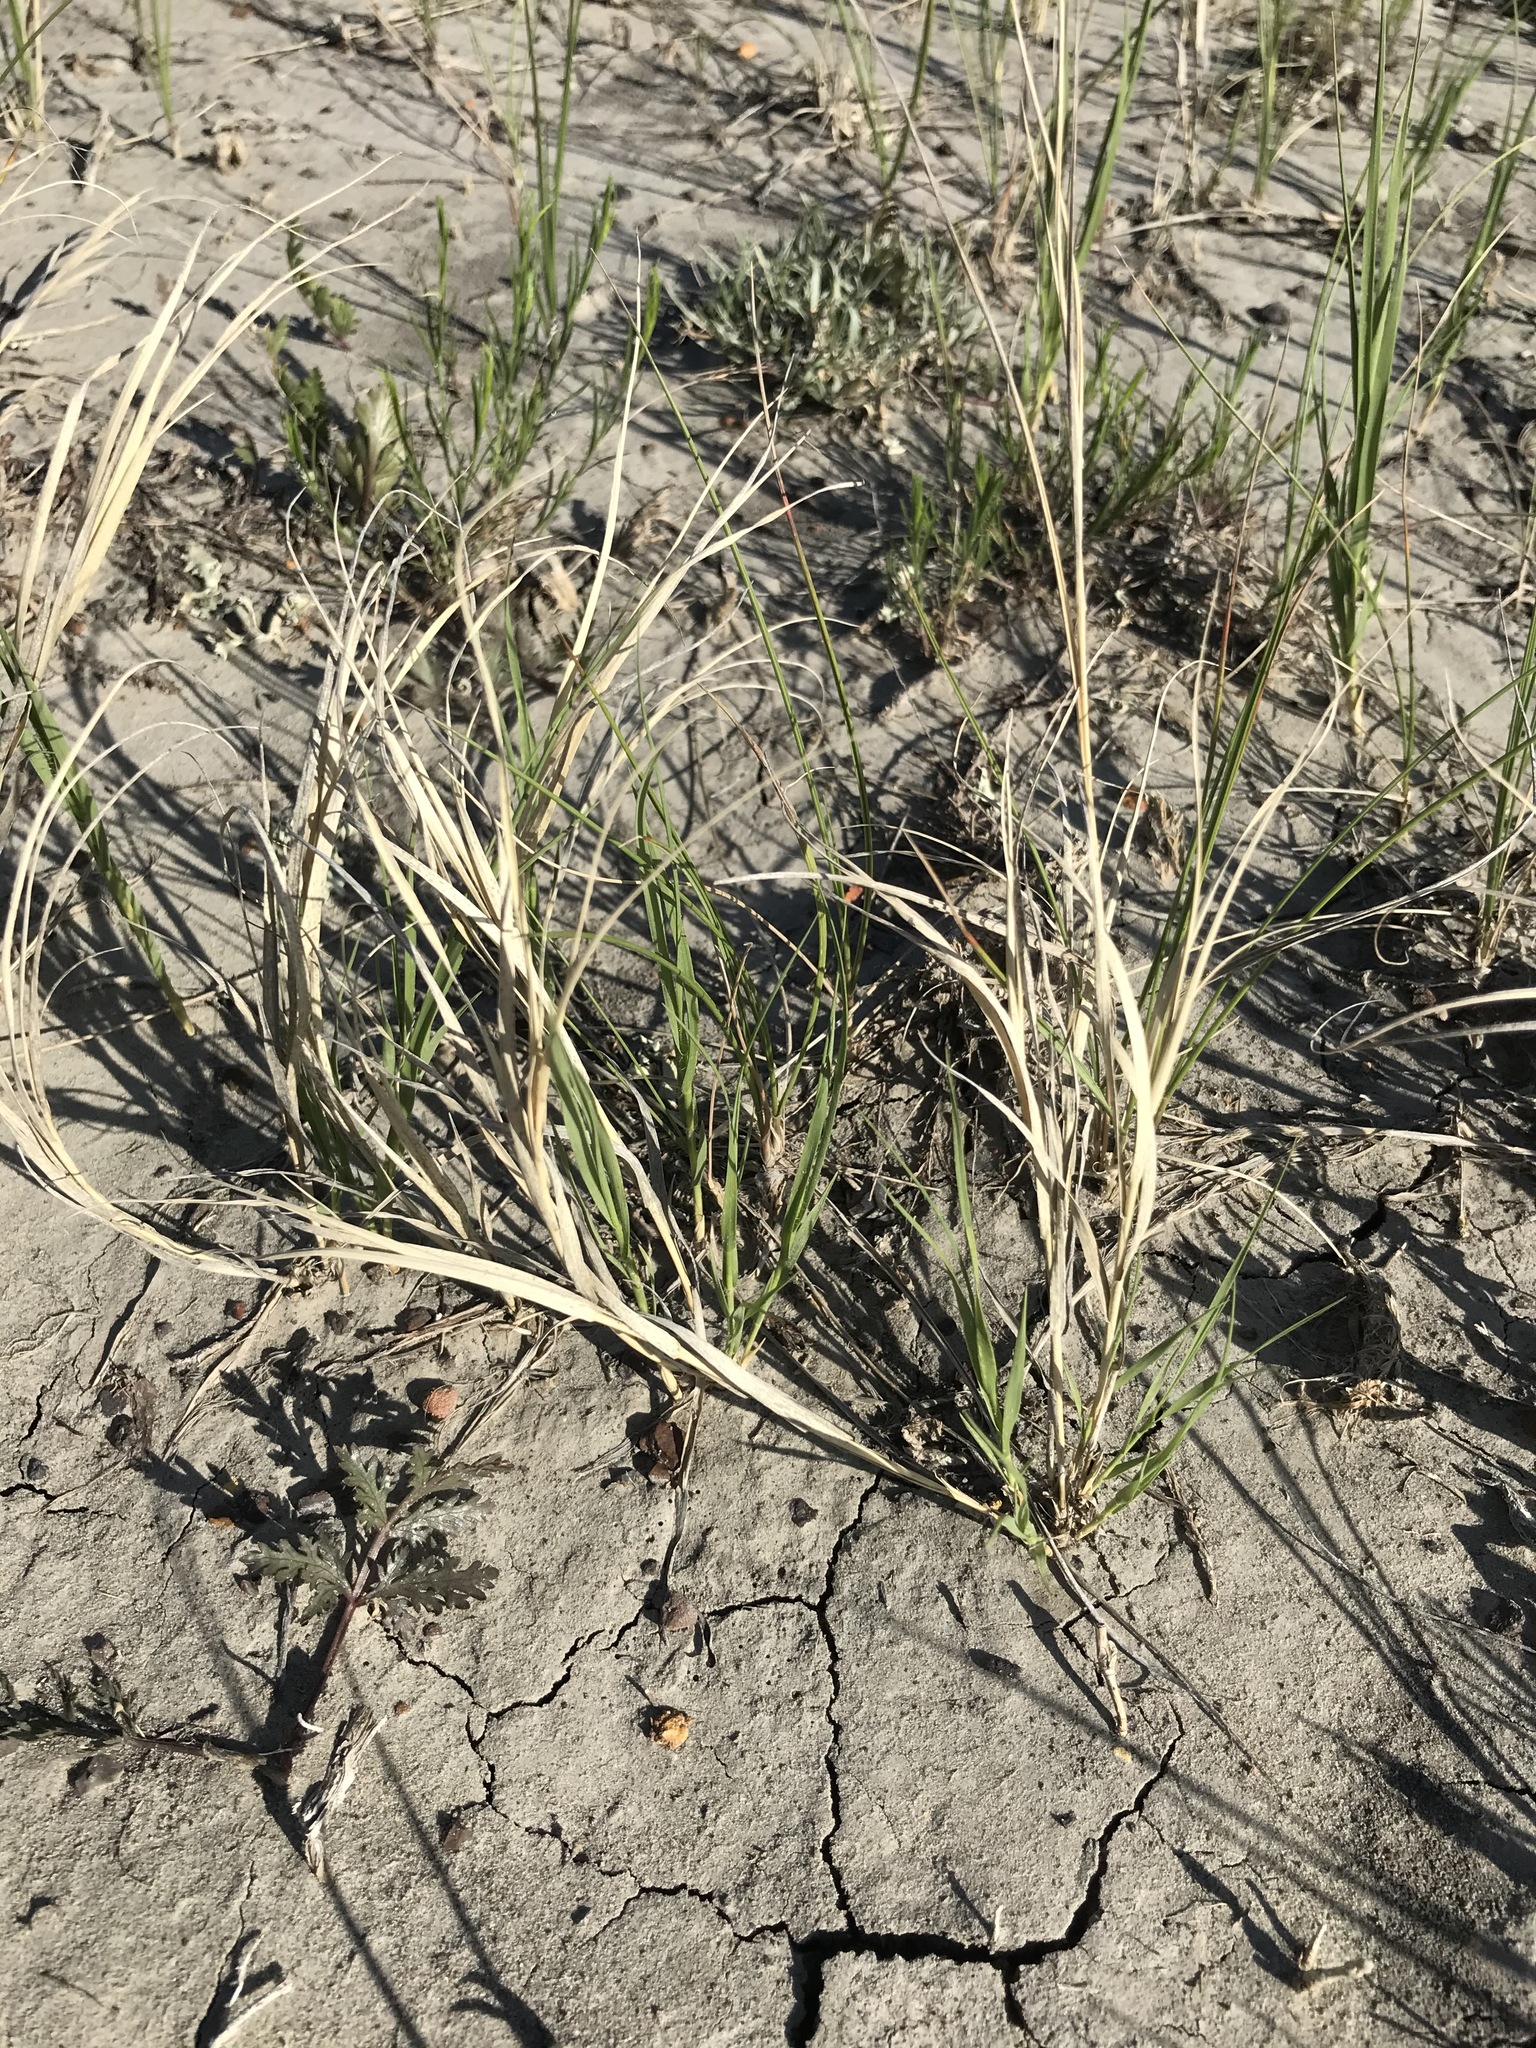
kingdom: Plantae
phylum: Tracheophyta
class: Liliopsida
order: Poales
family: Poaceae
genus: Distichlis
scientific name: Distichlis spicata
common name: Saltgrass
